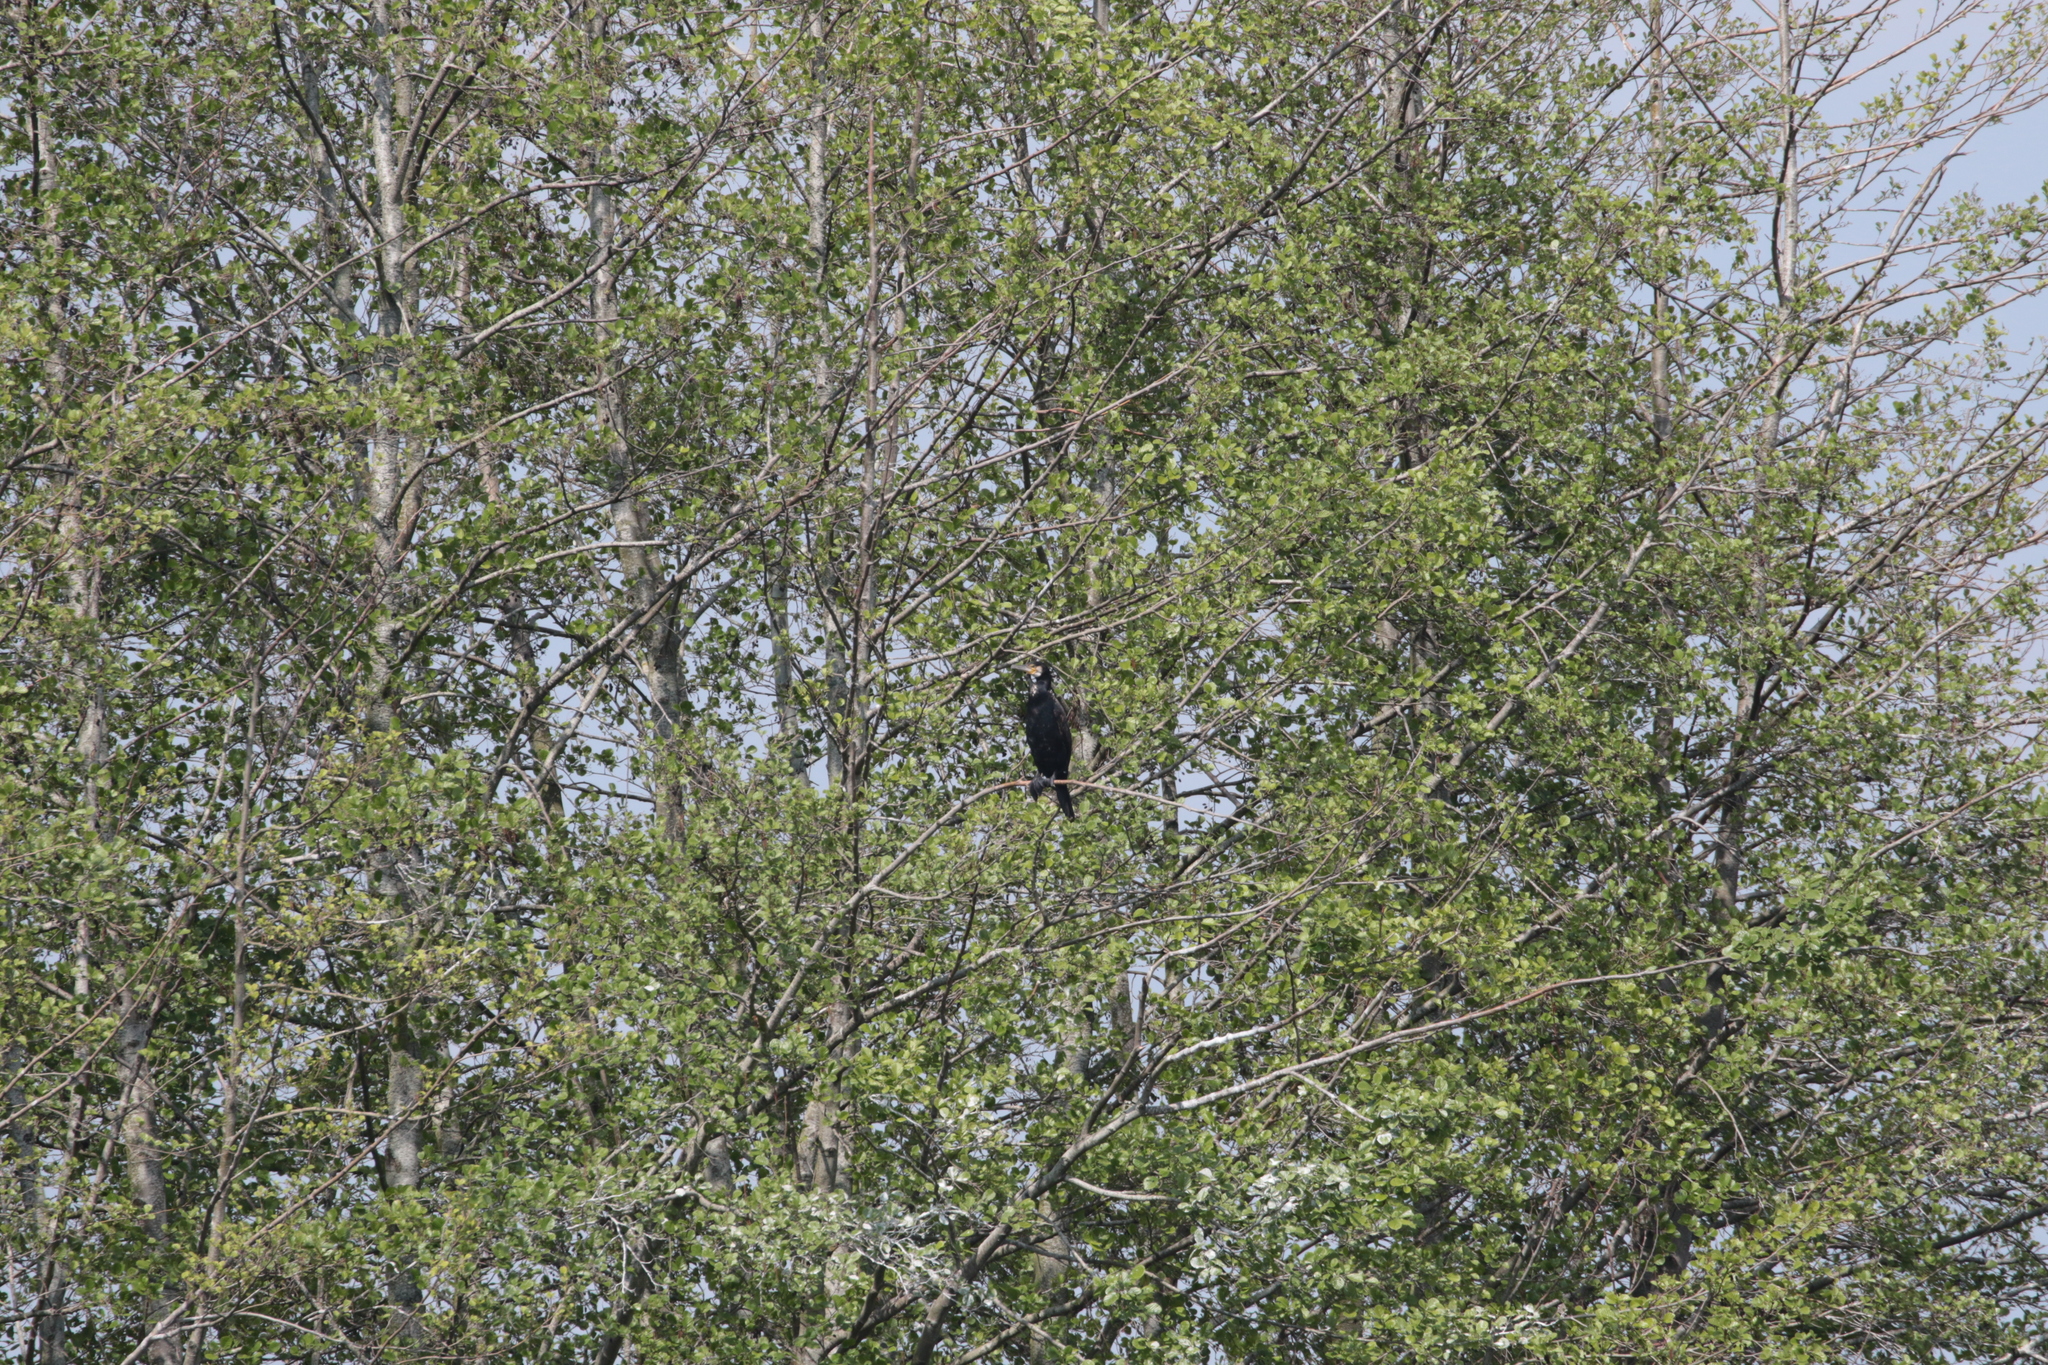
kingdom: Animalia
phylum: Chordata
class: Aves
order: Suliformes
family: Phalacrocoracidae
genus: Phalacrocorax
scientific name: Phalacrocorax carbo
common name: Great cormorant
